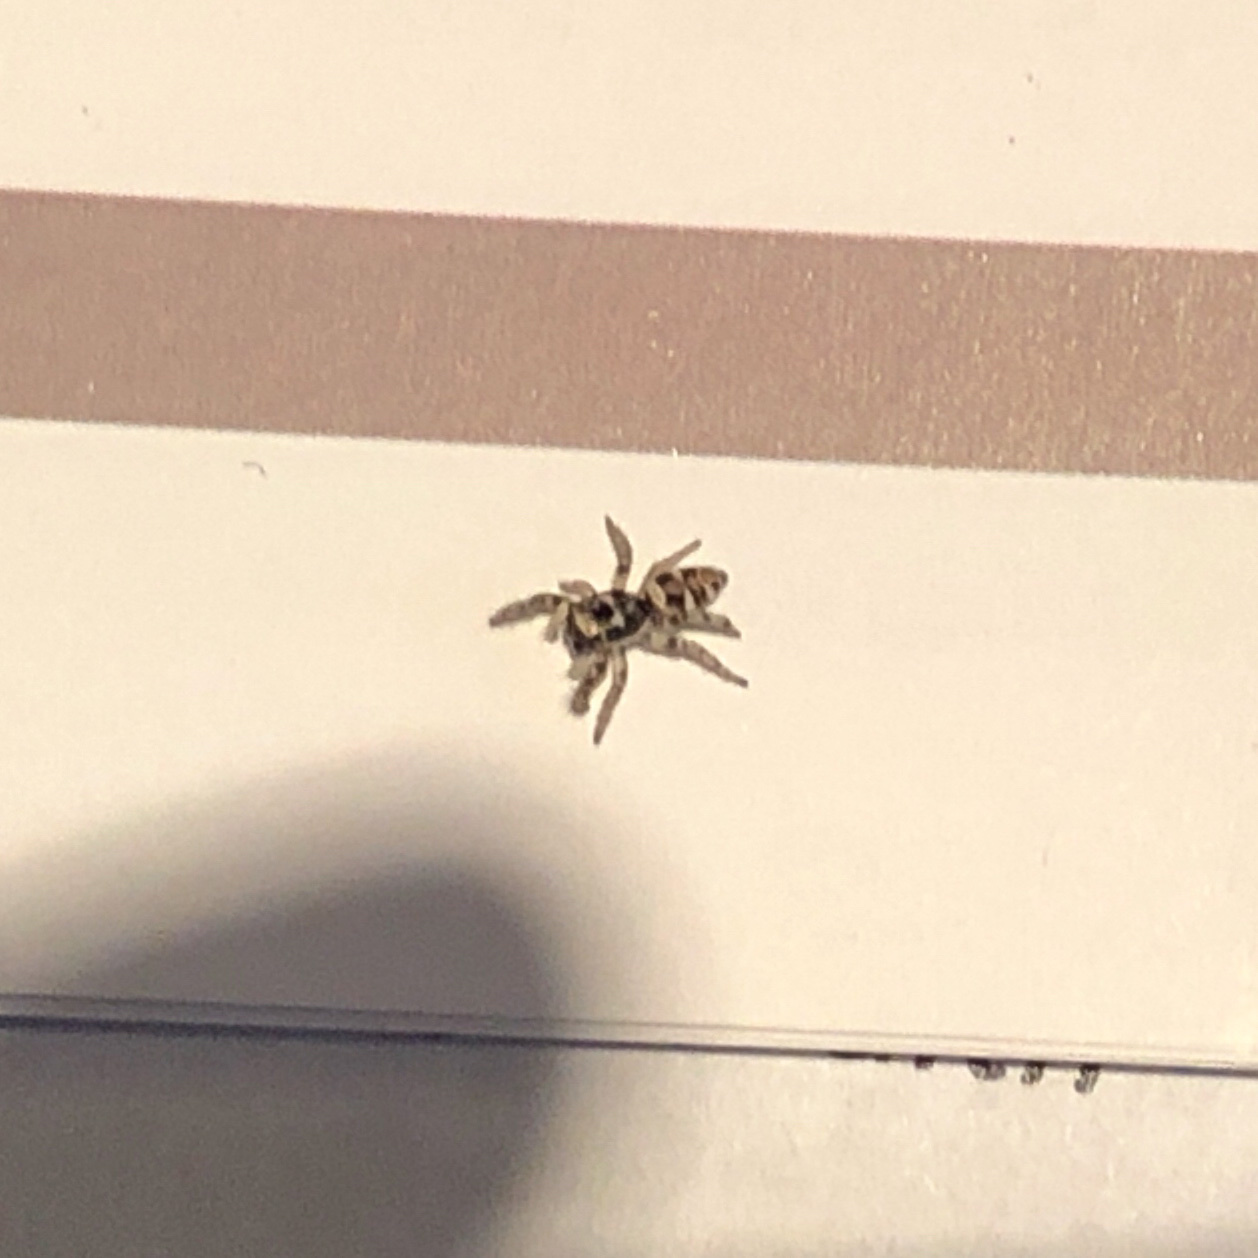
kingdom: Animalia
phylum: Arthropoda
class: Arachnida
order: Araneae
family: Salticidae
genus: Salticus
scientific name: Salticus scenicus
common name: Zebra jumper
